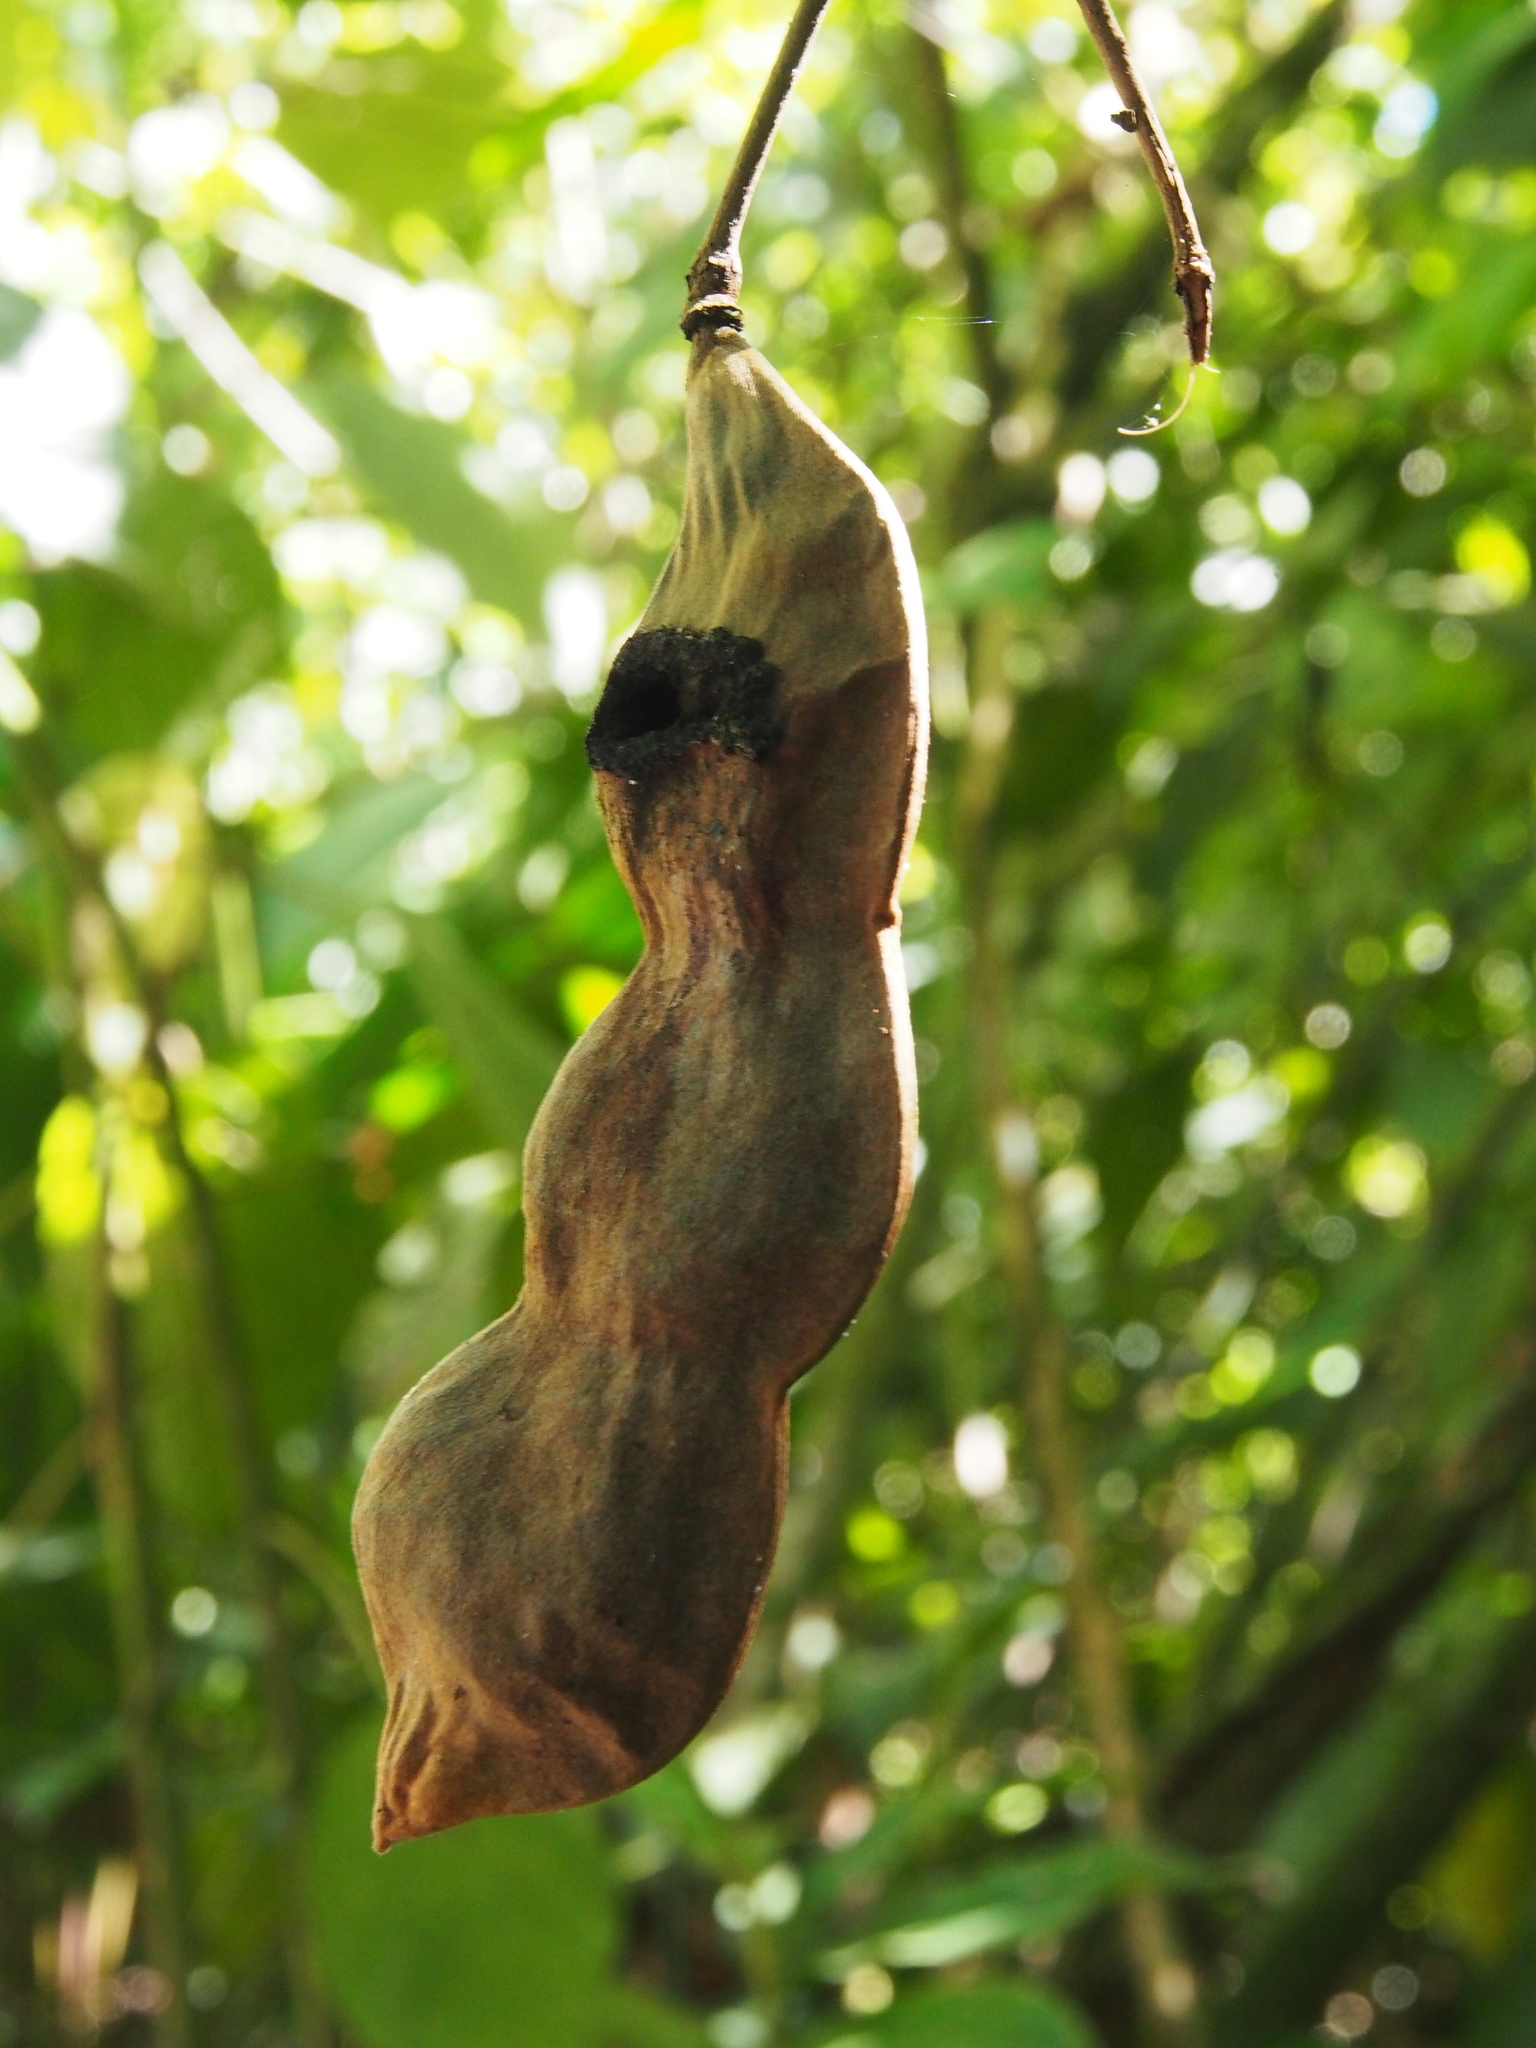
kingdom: Plantae
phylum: Tracheophyta
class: Magnoliopsida
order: Fabales
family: Fabaceae
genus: Mucuna
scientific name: Mucuna holtonii
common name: Hamburger bean
